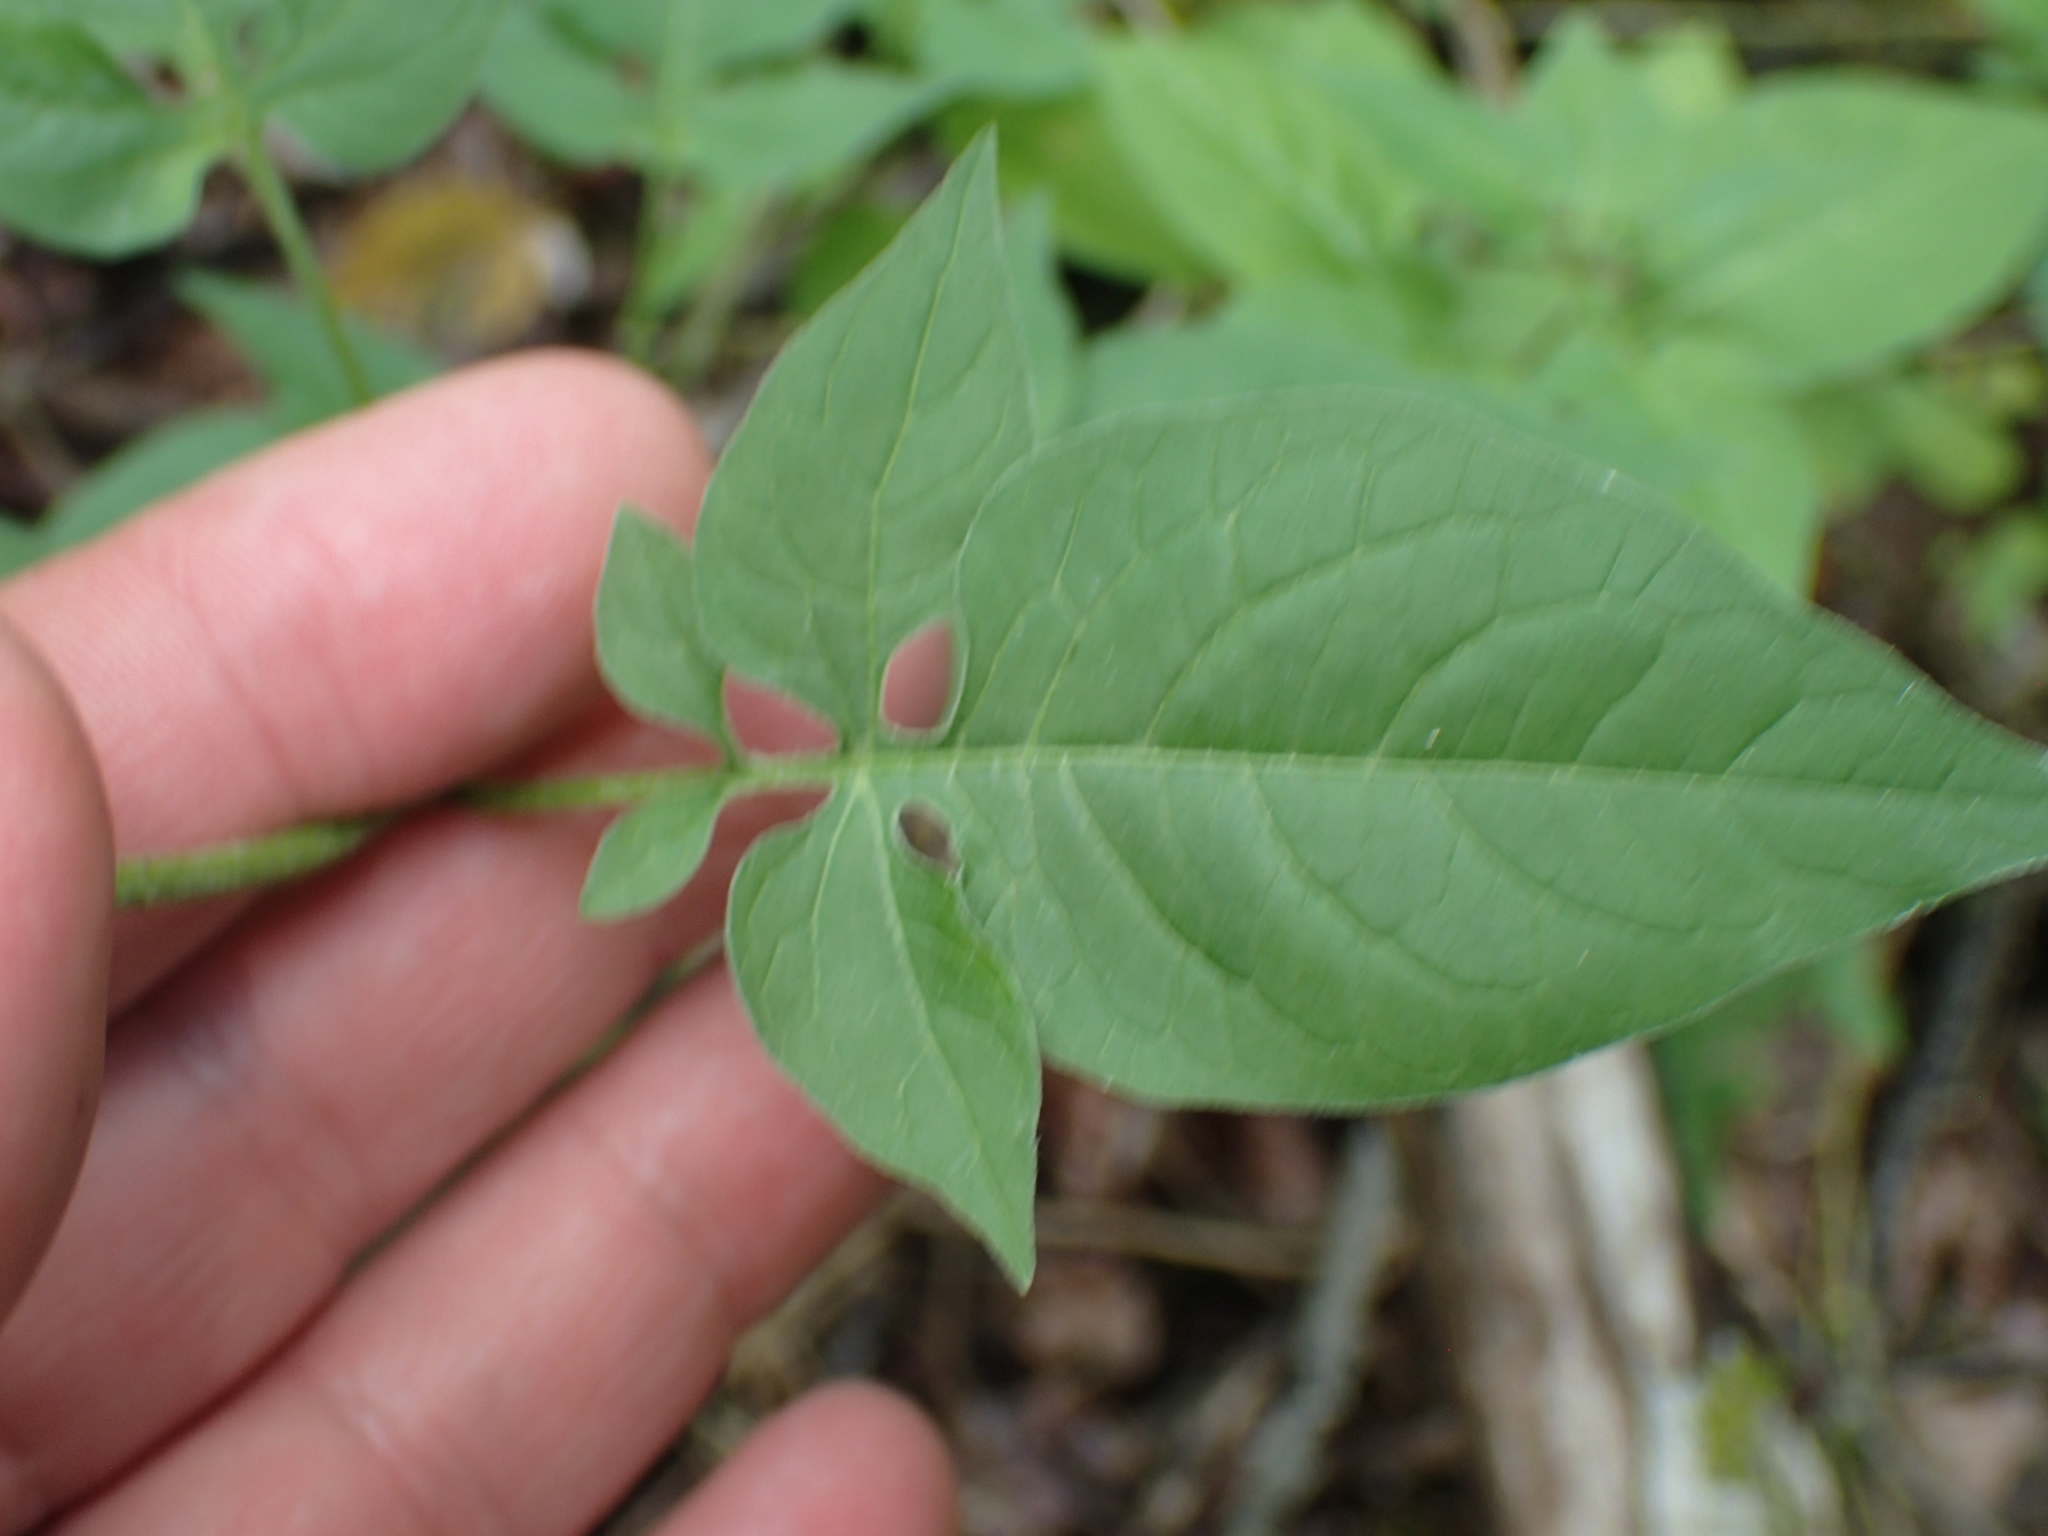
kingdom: Plantae
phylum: Tracheophyta
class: Magnoliopsida
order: Solanales
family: Solanaceae
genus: Solanum
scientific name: Solanum dulcamara
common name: Climbing nightshade
